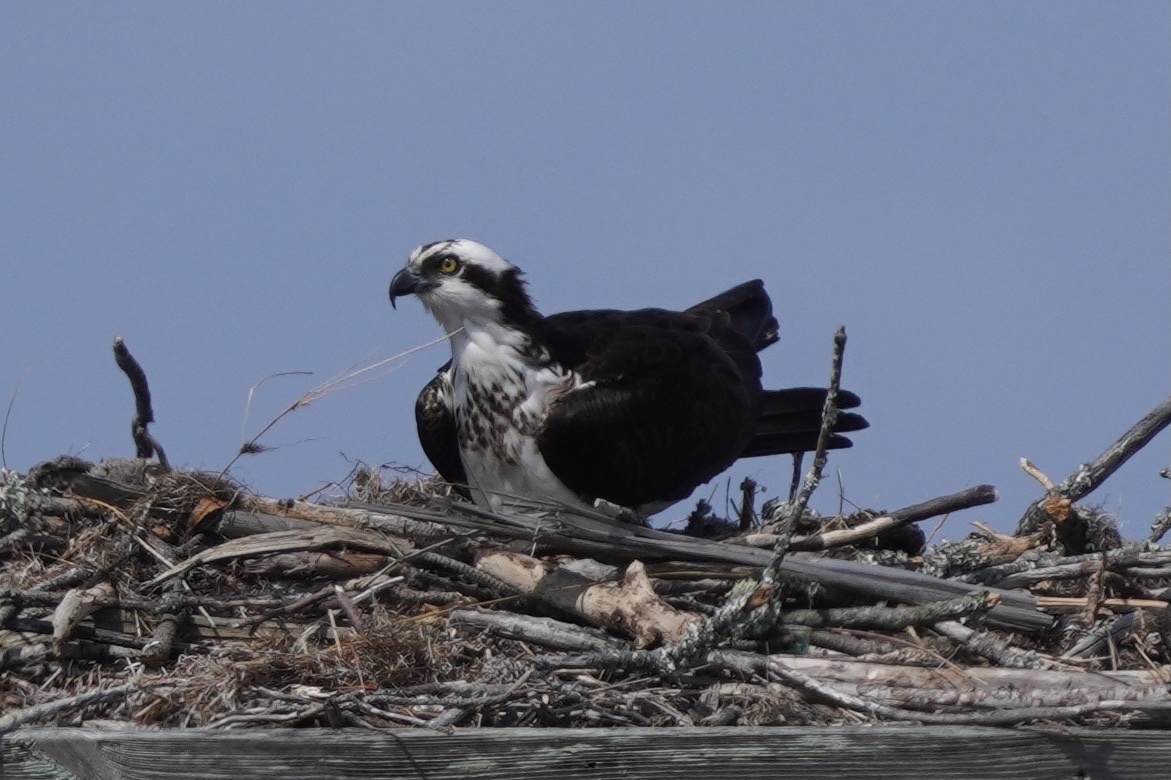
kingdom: Animalia
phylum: Chordata
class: Aves
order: Accipitriformes
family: Pandionidae
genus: Pandion
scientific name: Pandion haliaetus
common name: Osprey
